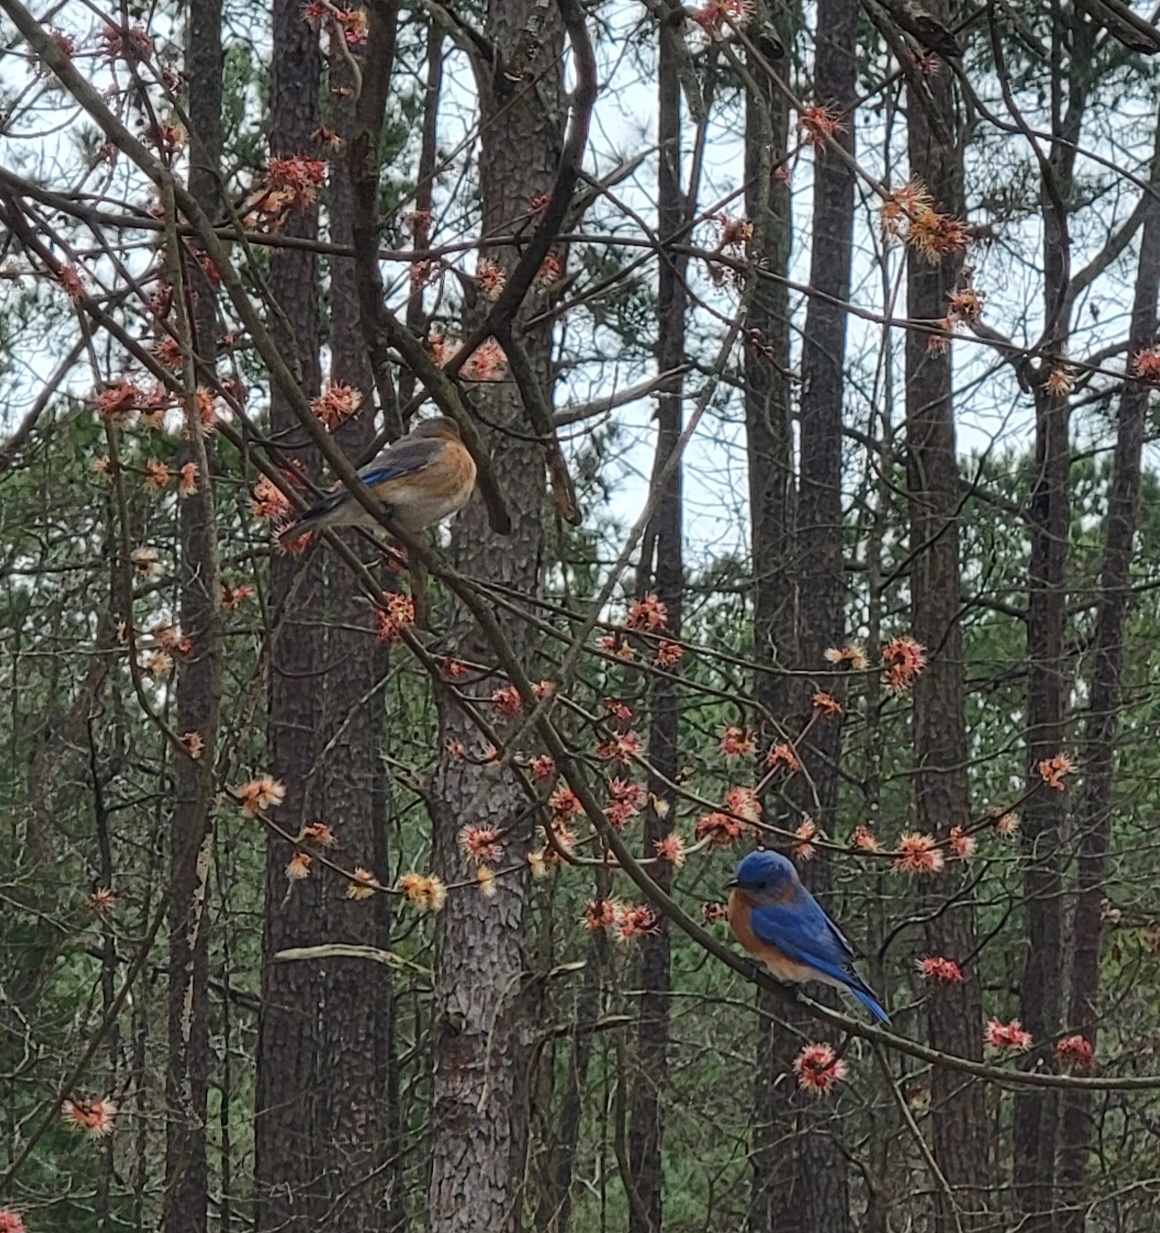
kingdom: Animalia
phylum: Chordata
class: Aves
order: Passeriformes
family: Turdidae
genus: Sialia
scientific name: Sialia sialis
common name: Eastern bluebird
